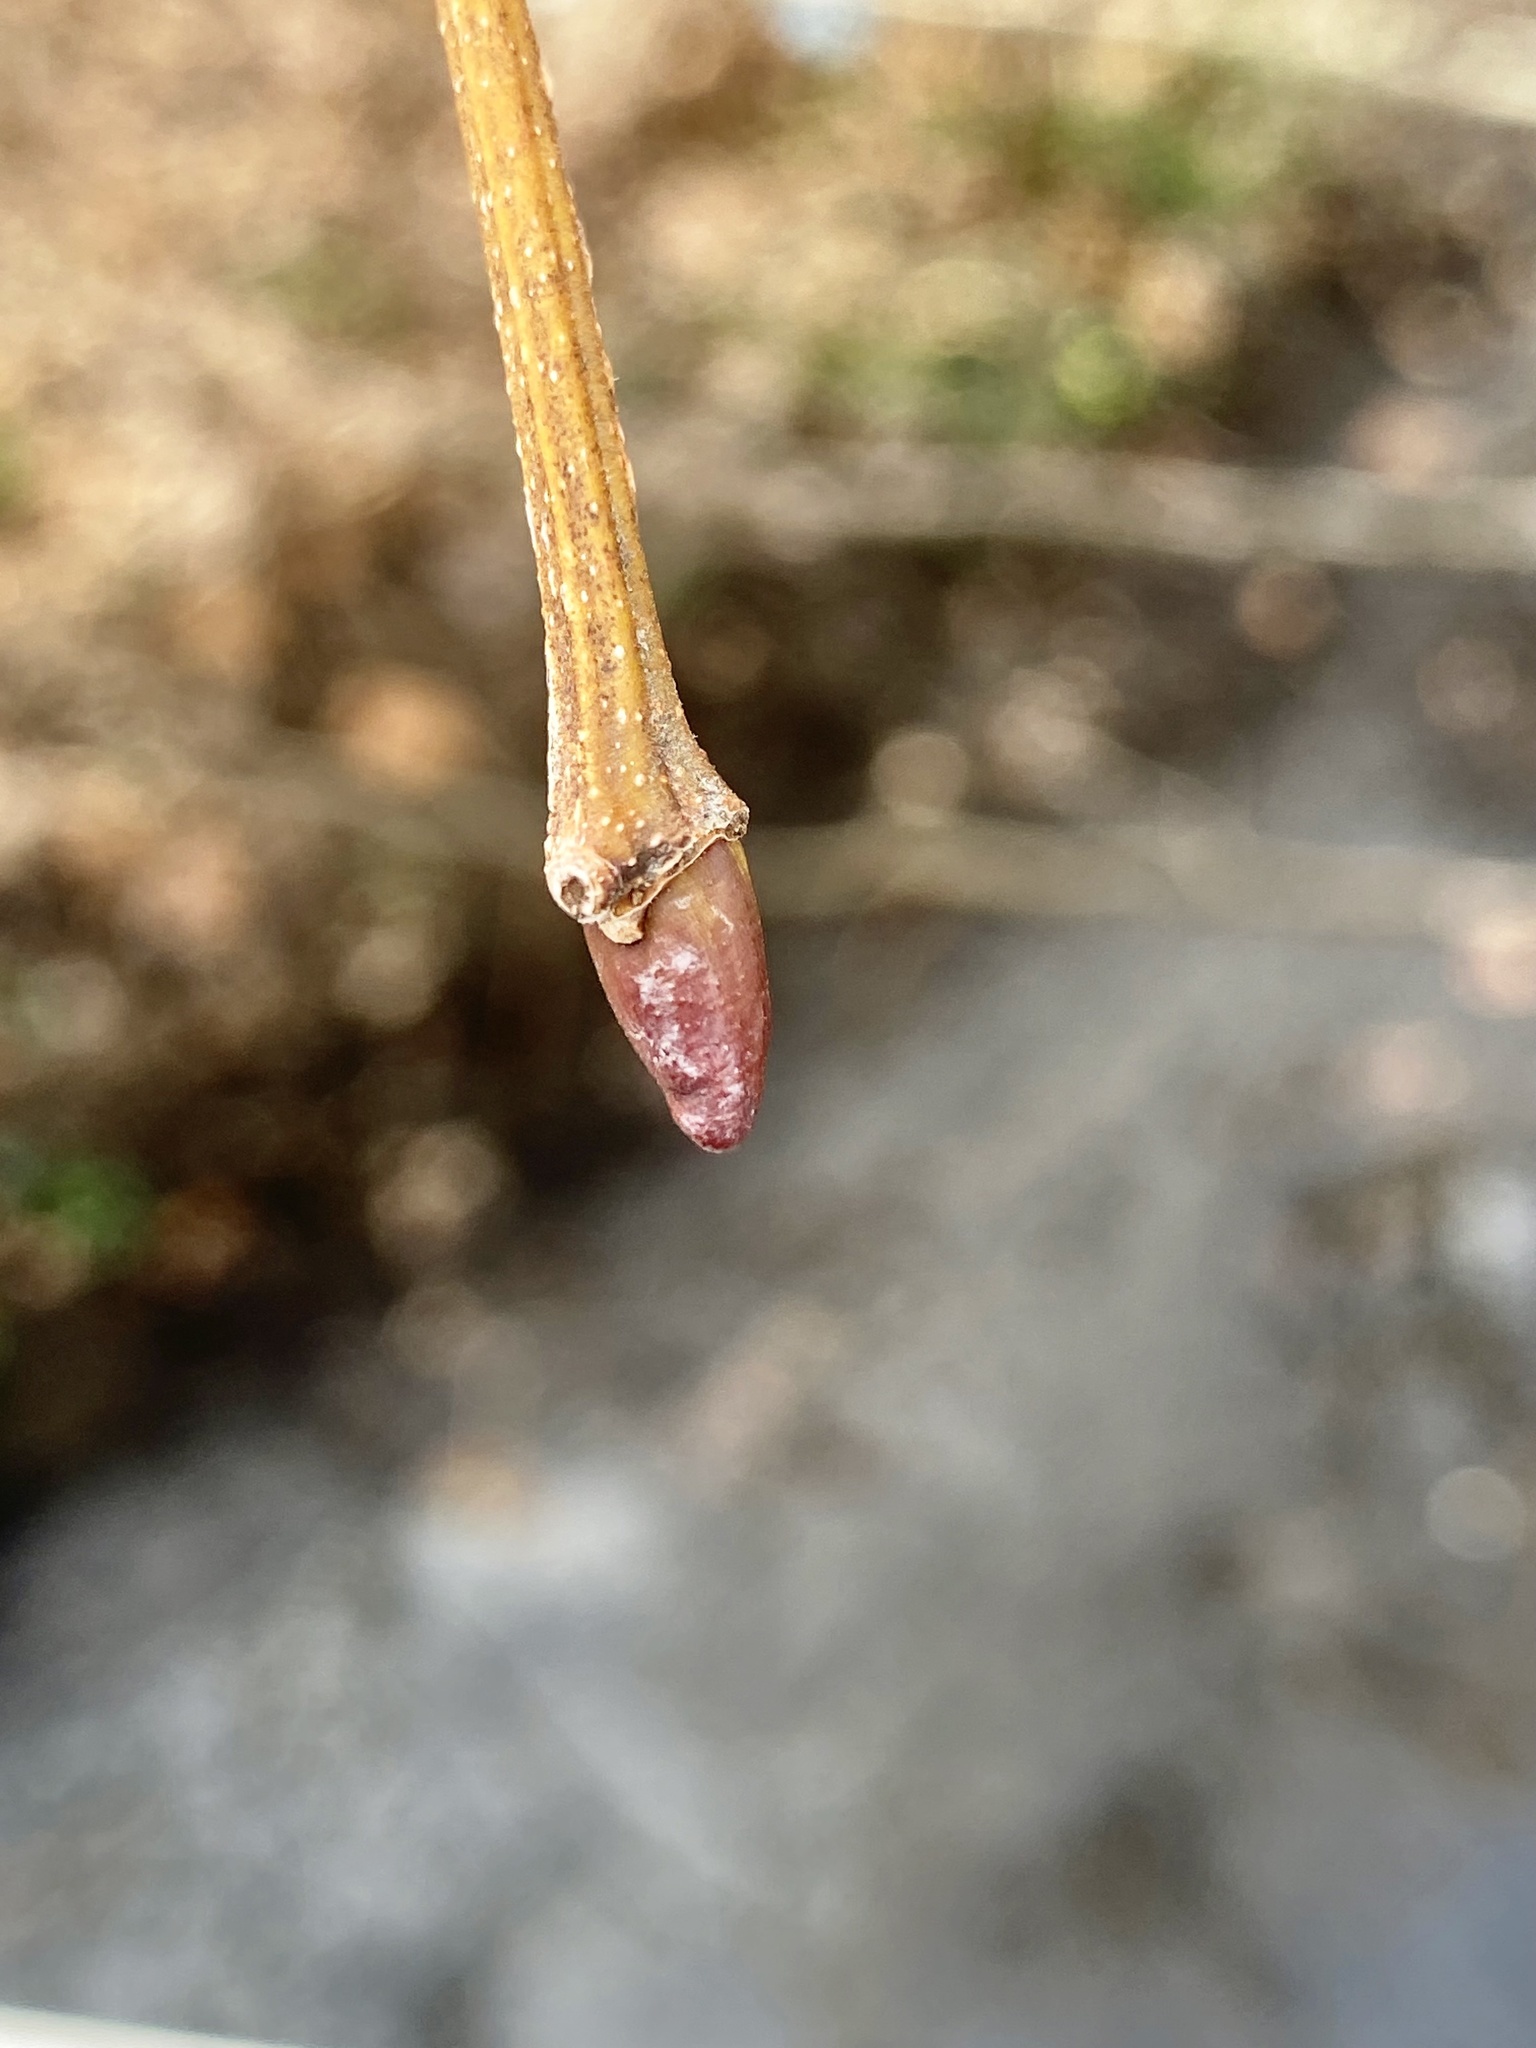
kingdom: Plantae
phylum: Tracheophyta
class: Magnoliopsida
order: Proteales
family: Platanaceae
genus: Platanus
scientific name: Platanus occidentalis
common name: American sycamore
